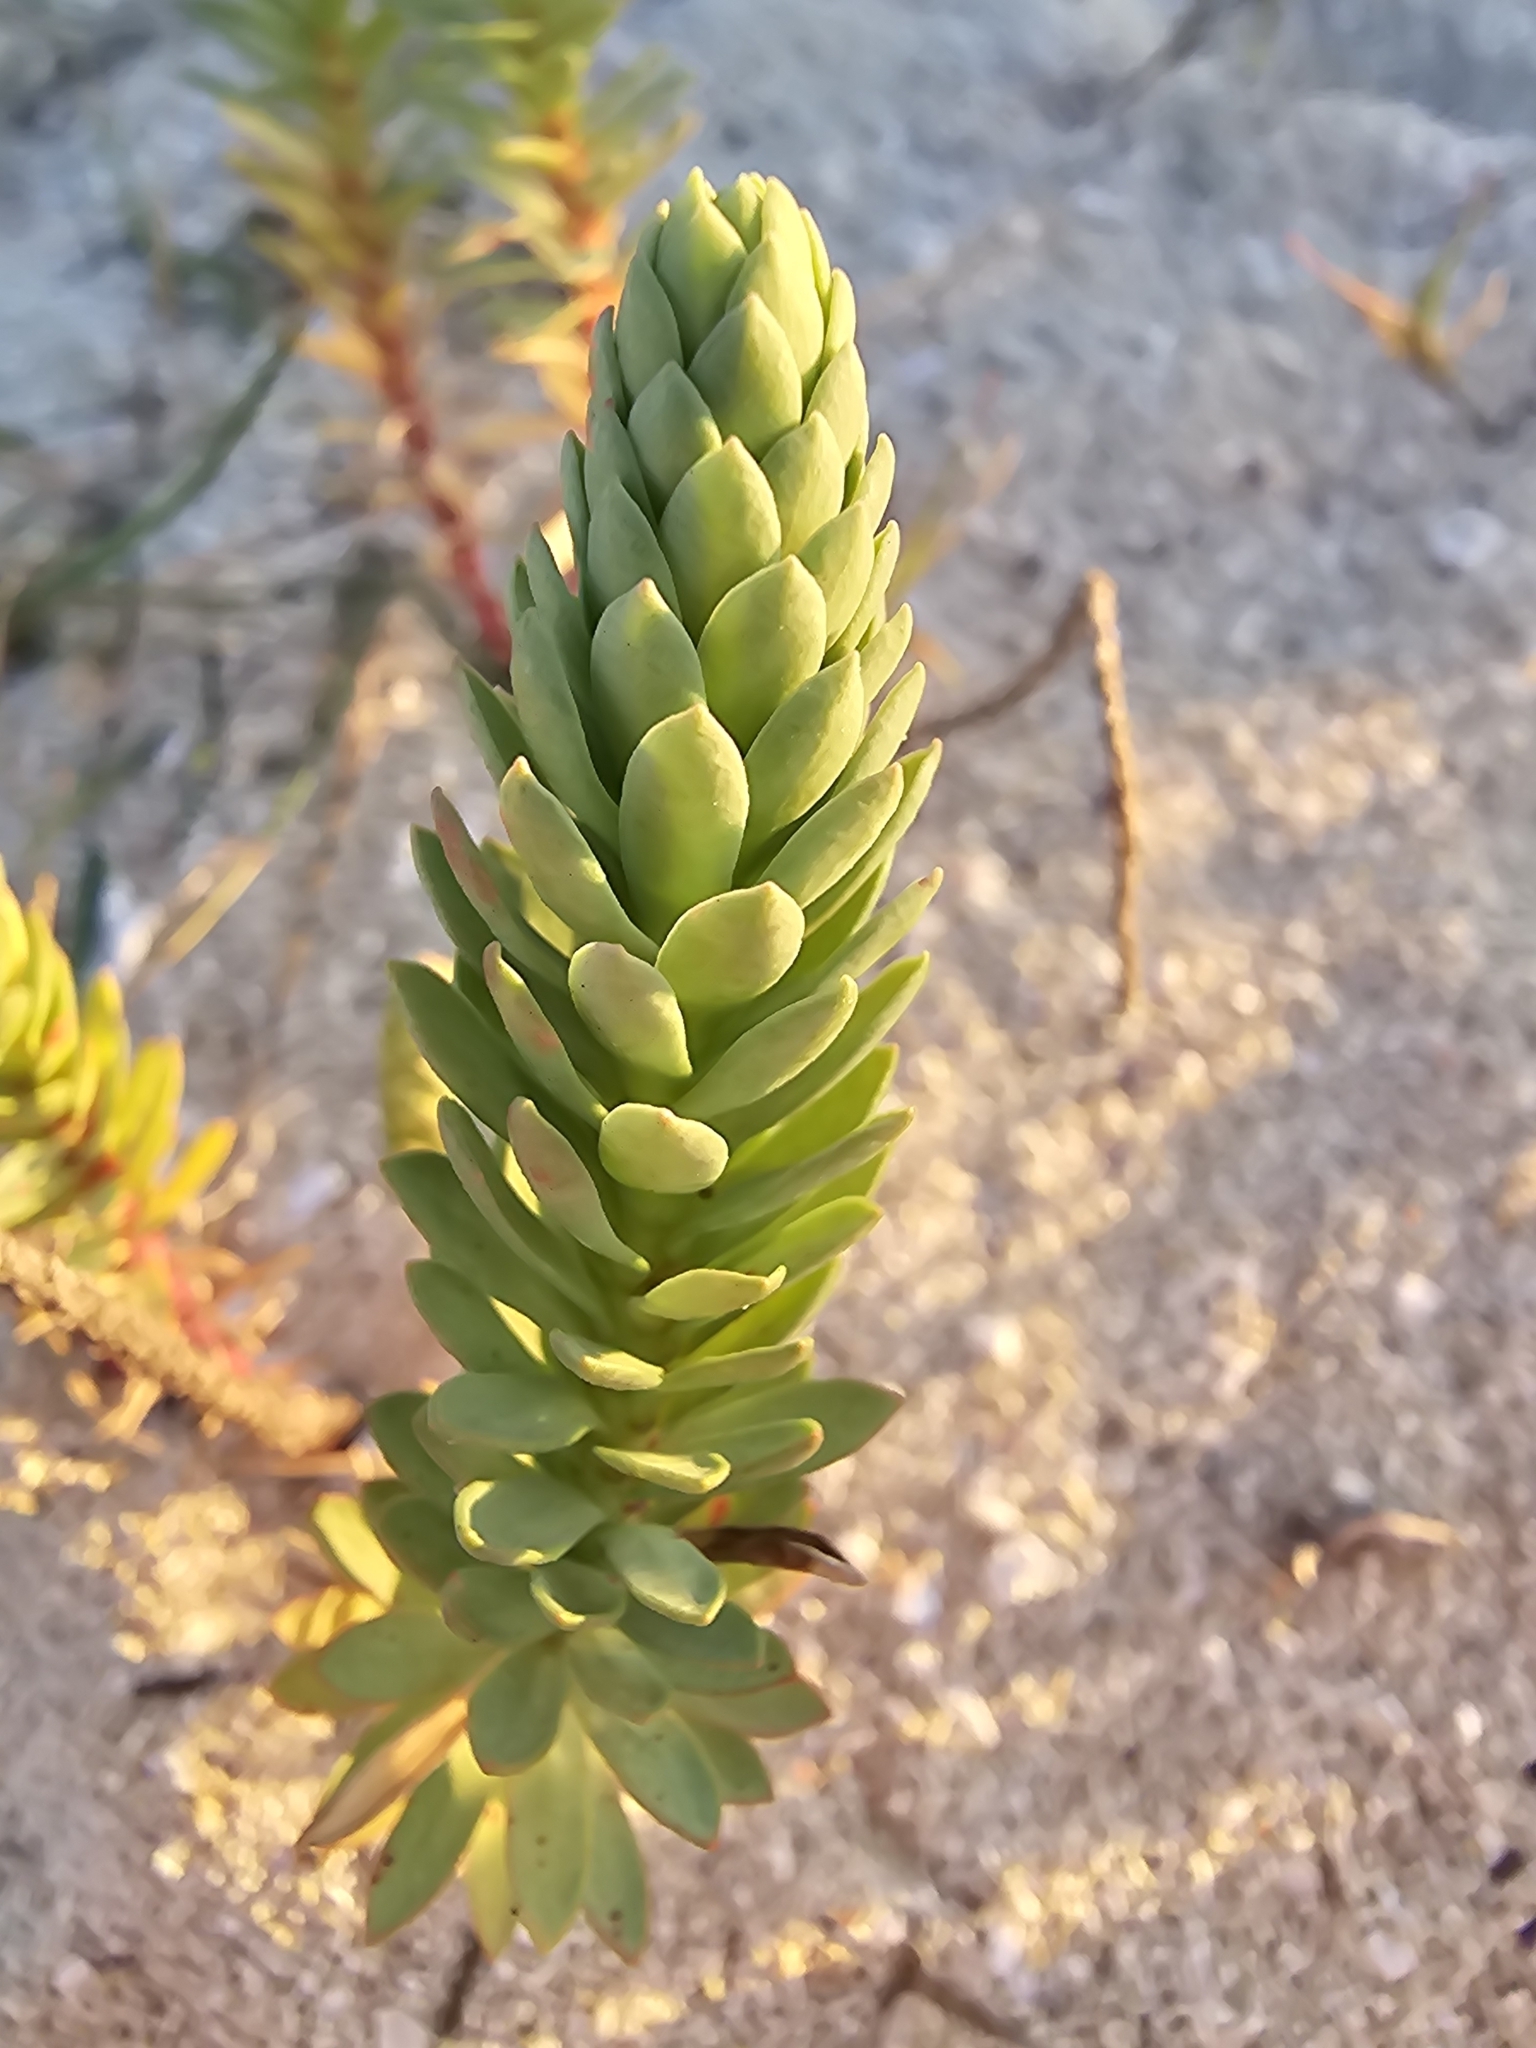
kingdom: Plantae
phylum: Tracheophyta
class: Magnoliopsida
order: Malpighiales
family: Euphorbiaceae
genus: Euphorbia
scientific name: Euphorbia paralias
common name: Sea spurge
